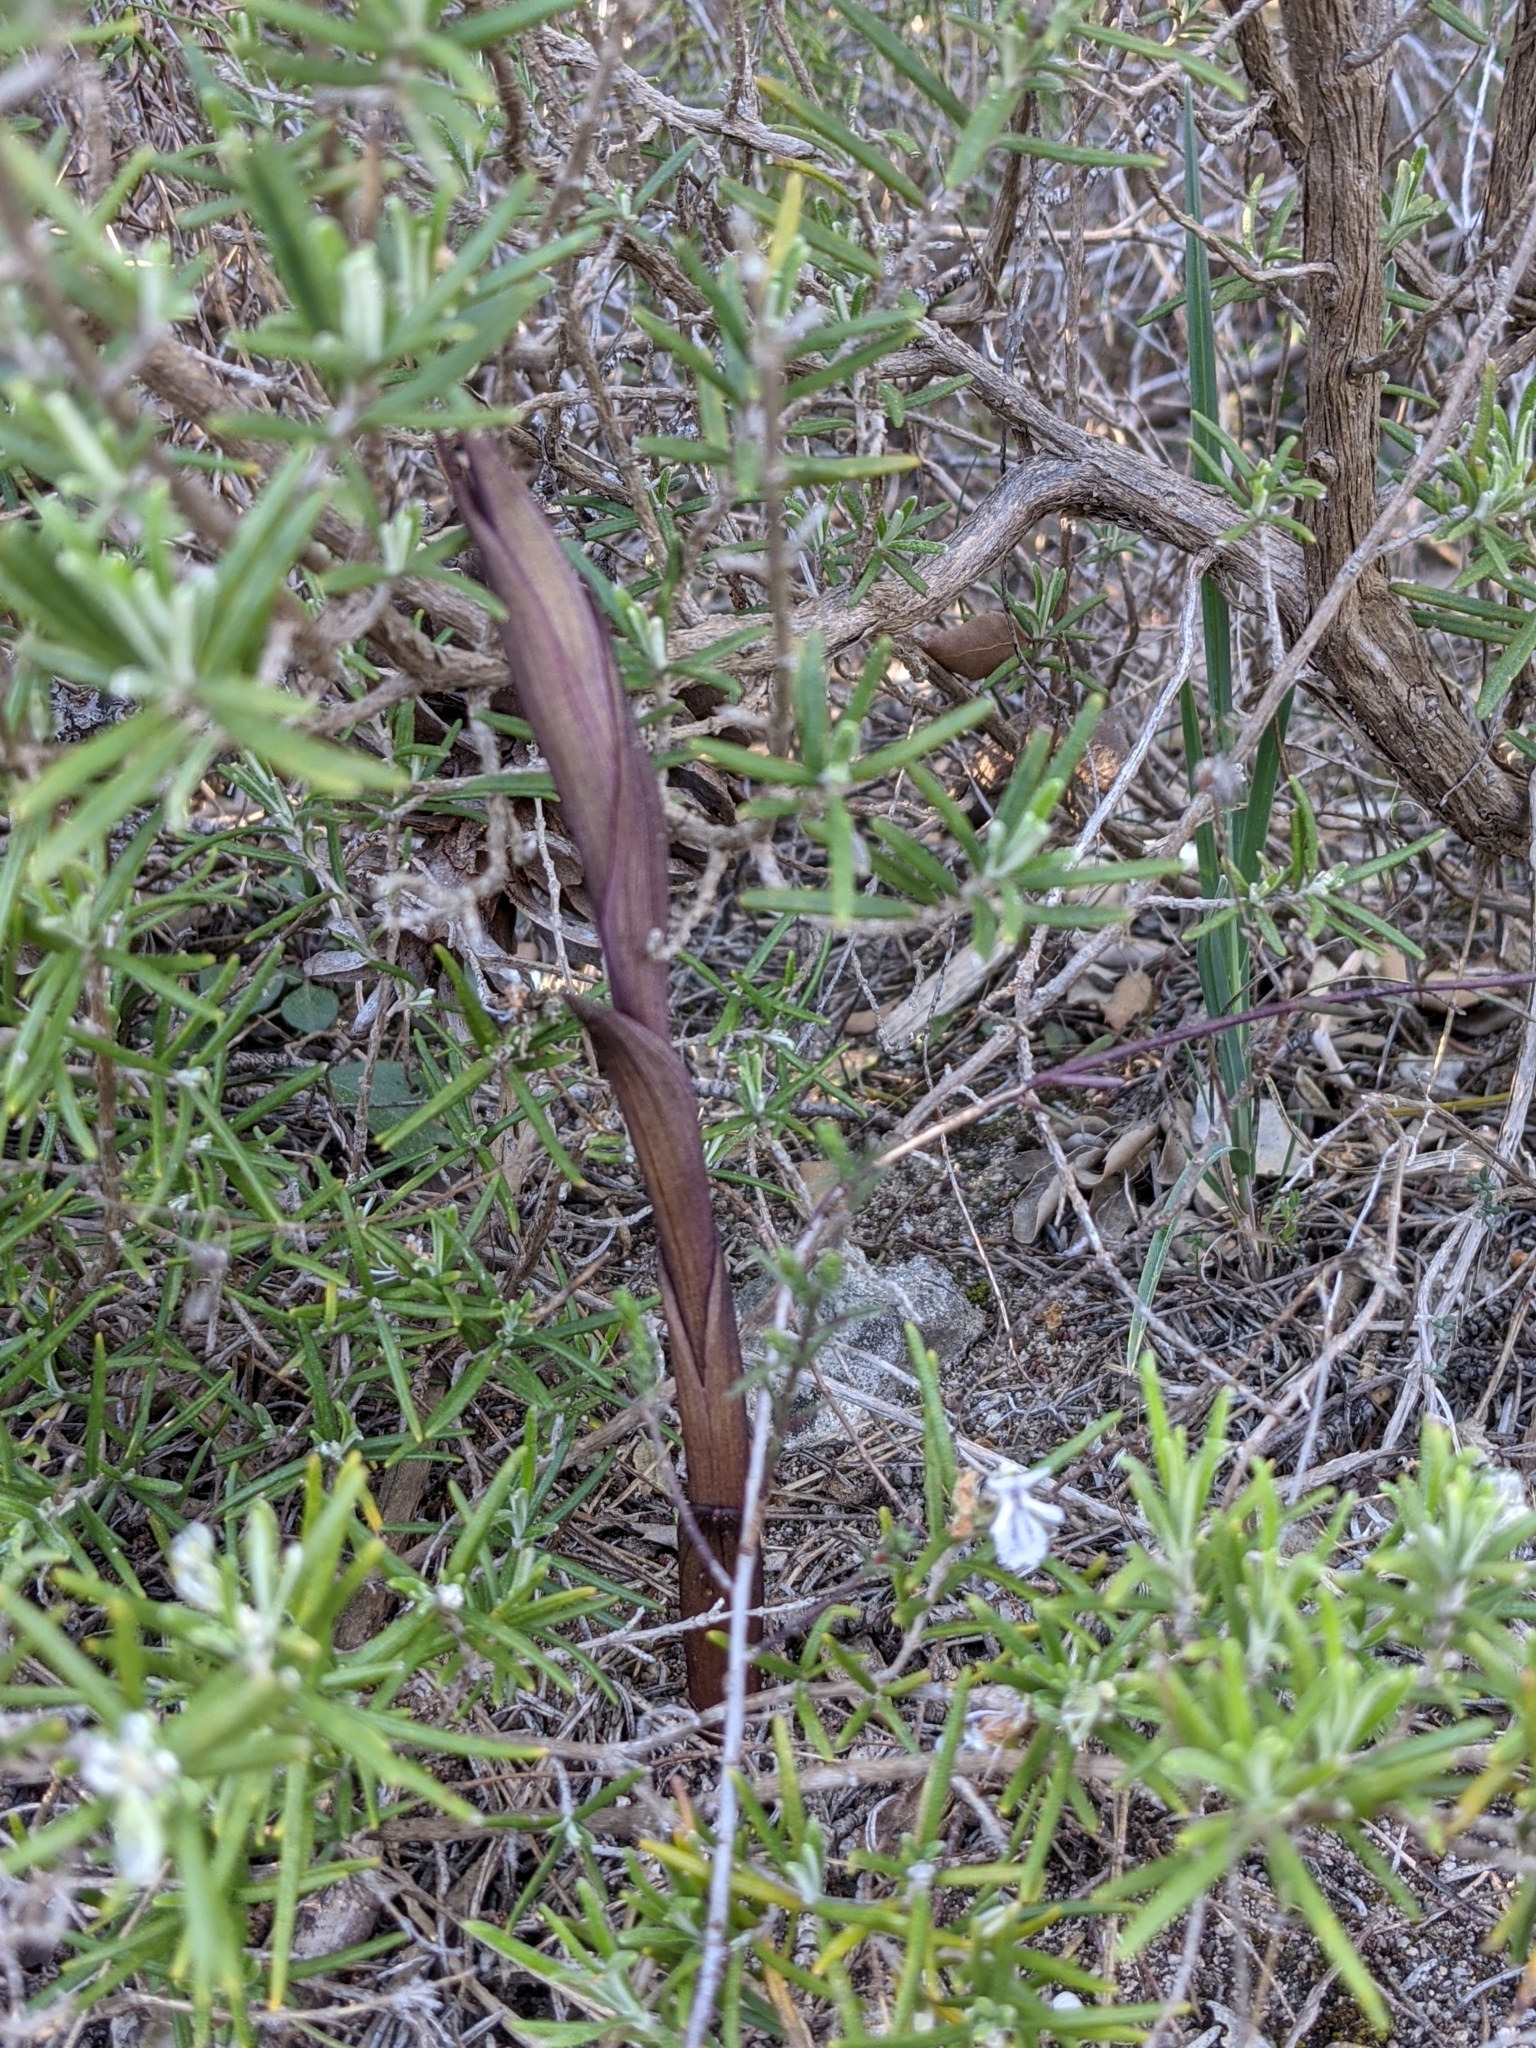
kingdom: Plantae
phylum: Tracheophyta
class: Liliopsida
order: Asparagales
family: Orchidaceae
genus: Limodorum
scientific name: Limodorum abortivum
